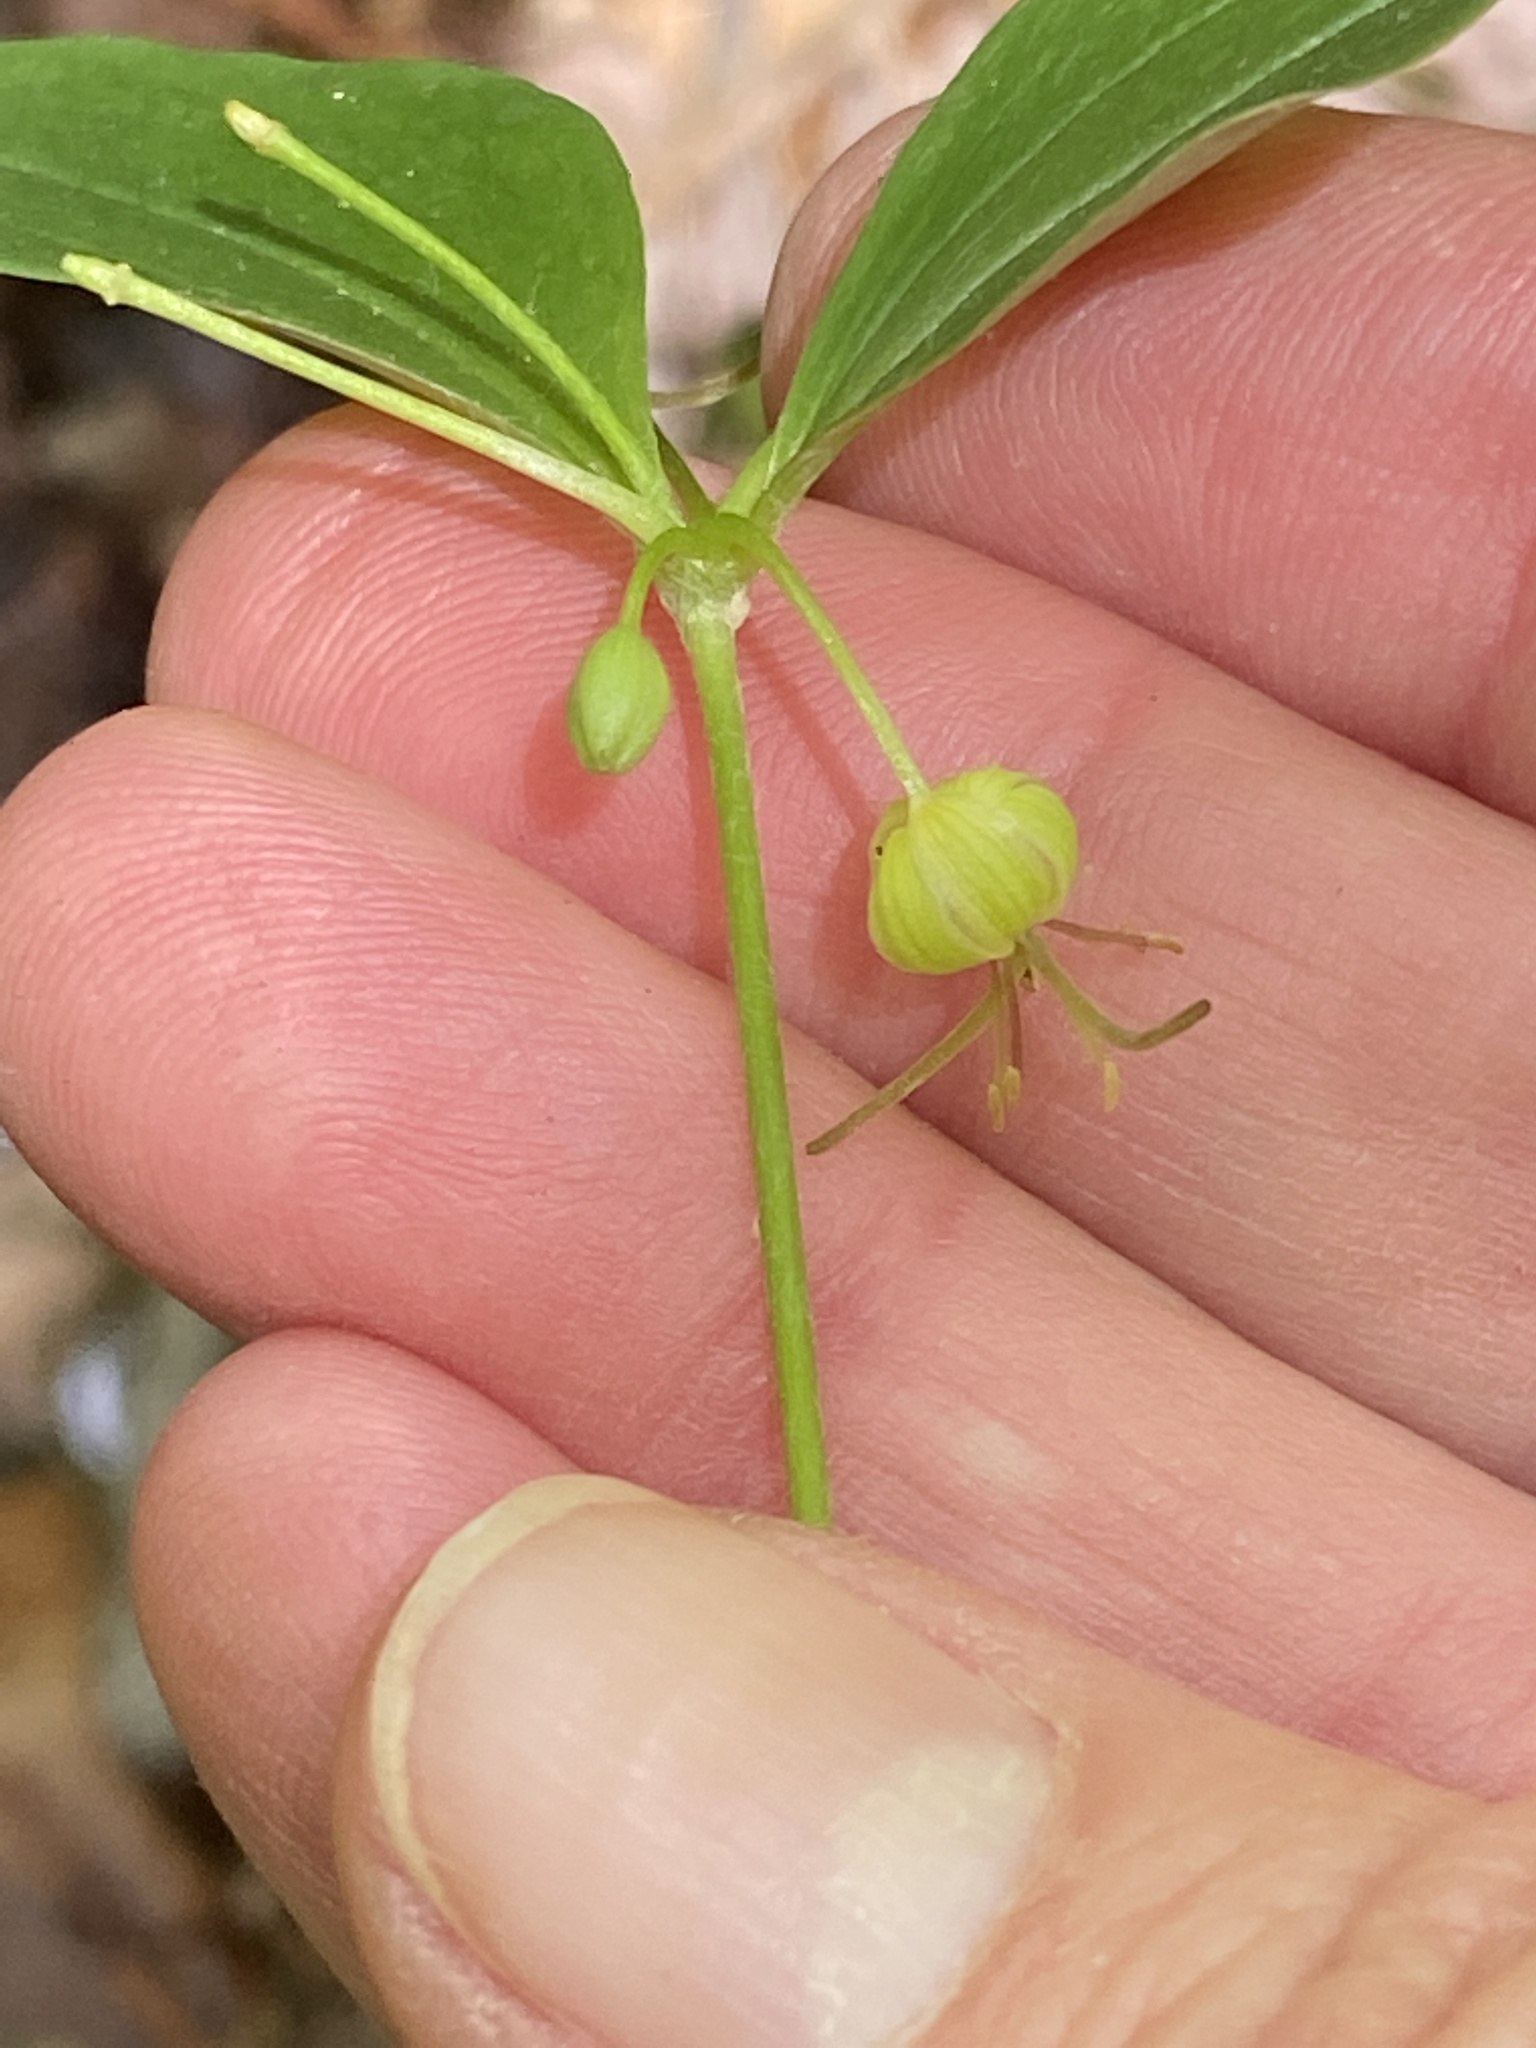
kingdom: Plantae
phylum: Tracheophyta
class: Liliopsida
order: Liliales
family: Liliaceae
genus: Medeola
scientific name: Medeola virginiana
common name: Indian cucumber-root
